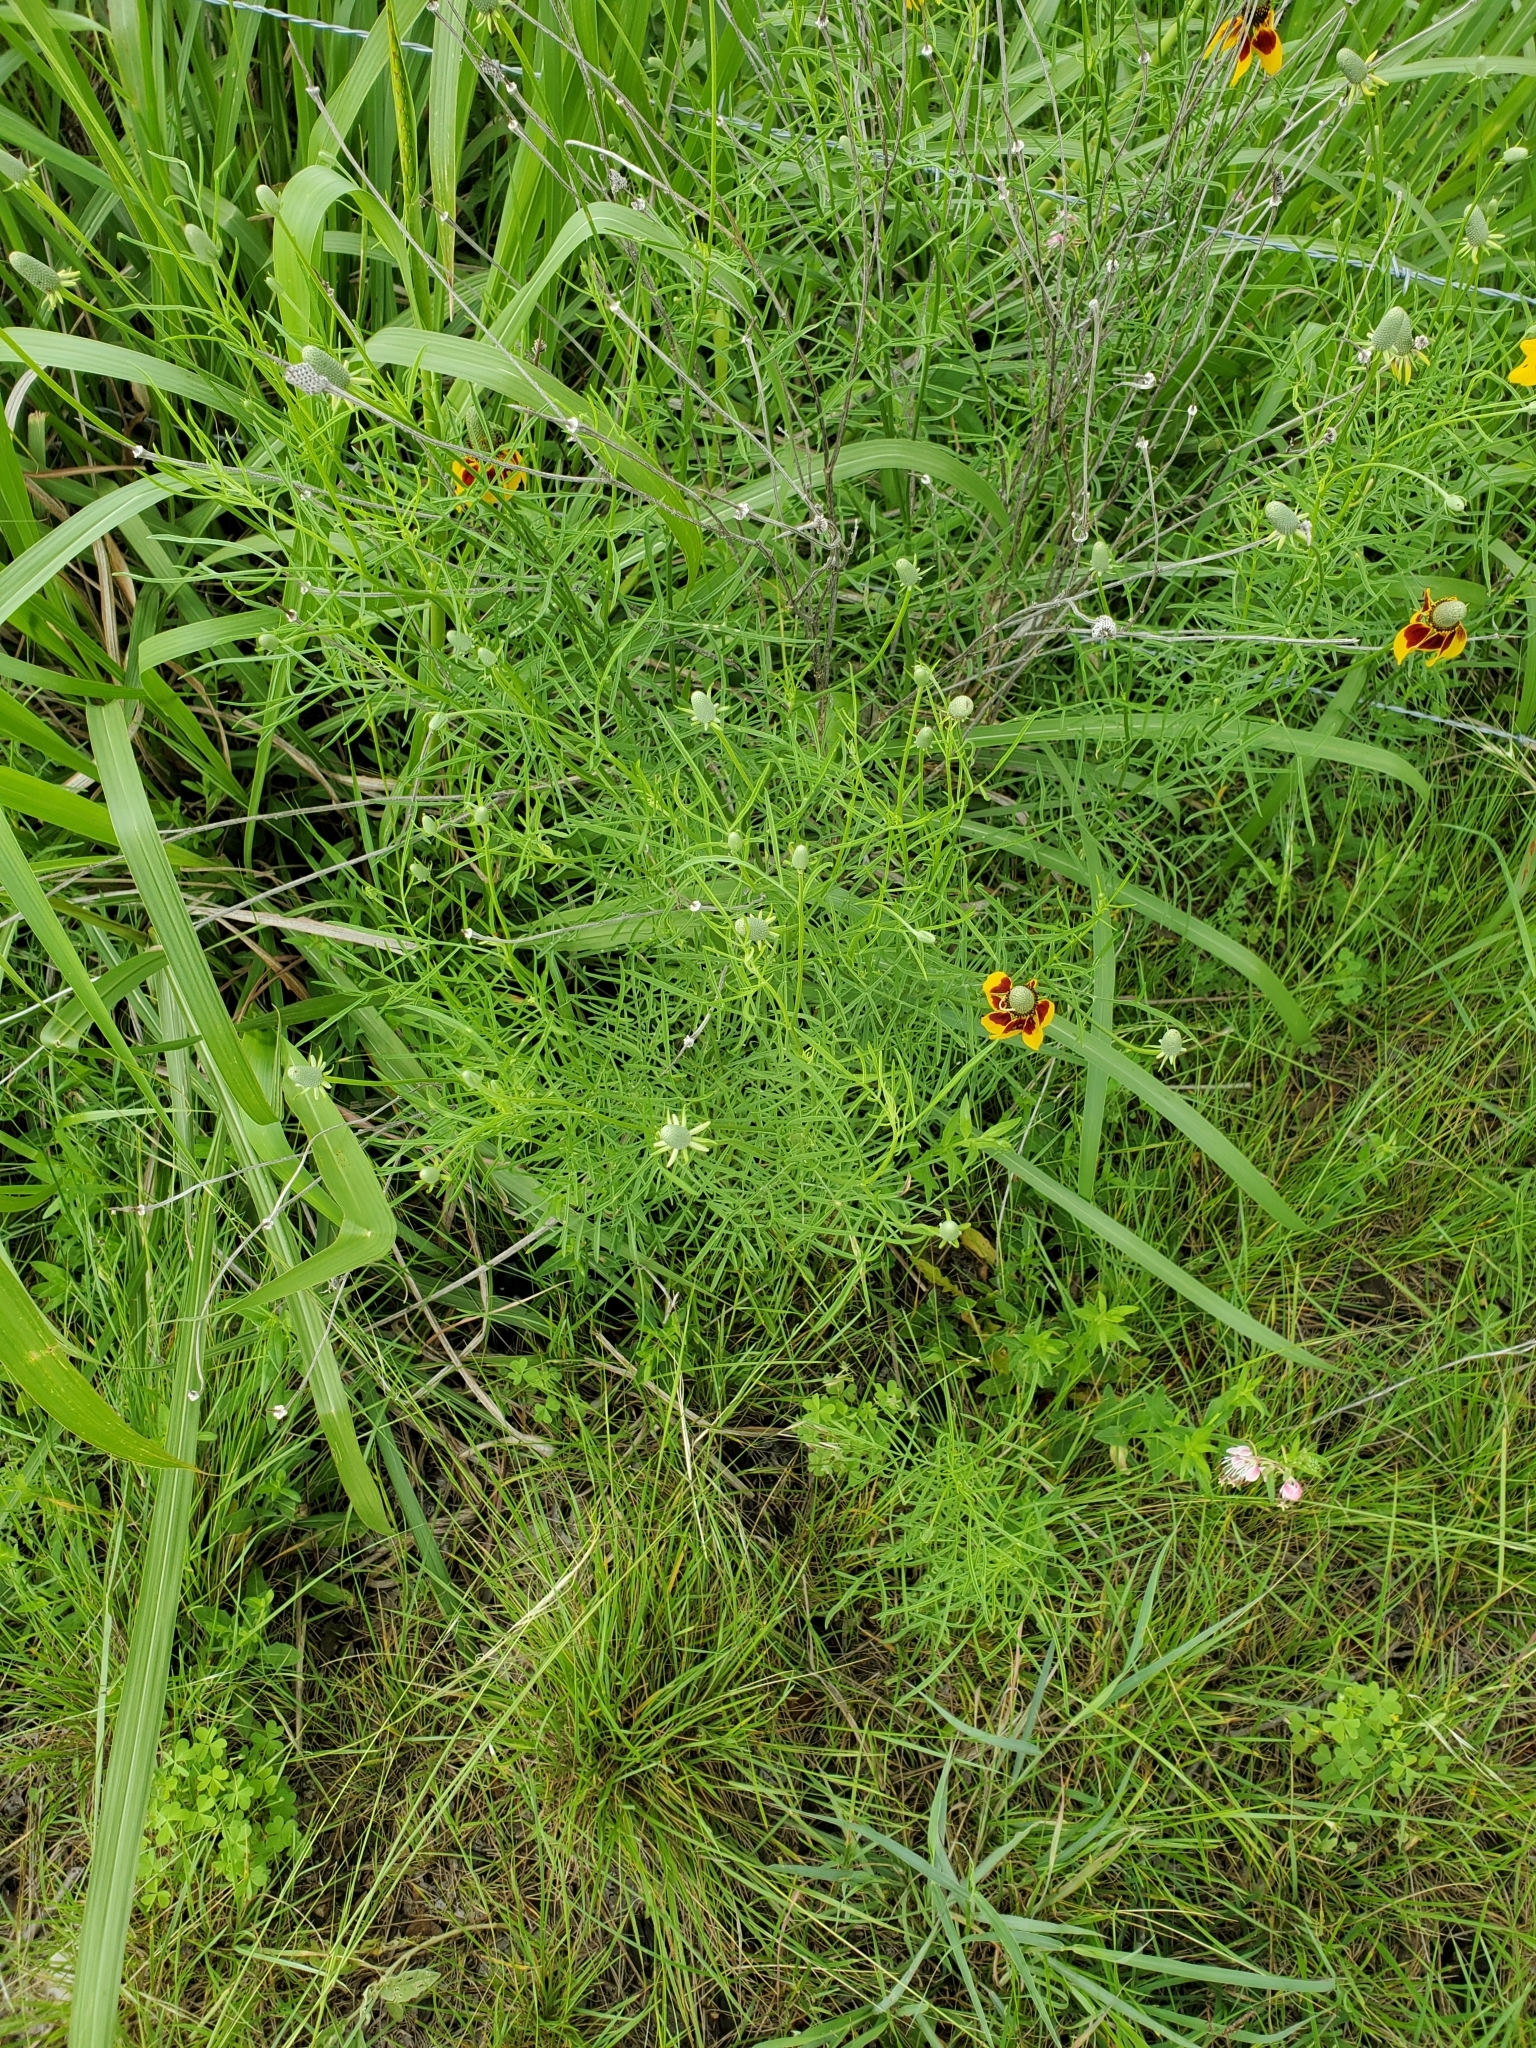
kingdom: Plantae
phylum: Tracheophyta
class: Magnoliopsida
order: Asterales
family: Asteraceae
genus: Ratibida
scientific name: Ratibida columnifera
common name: Prairie coneflower
